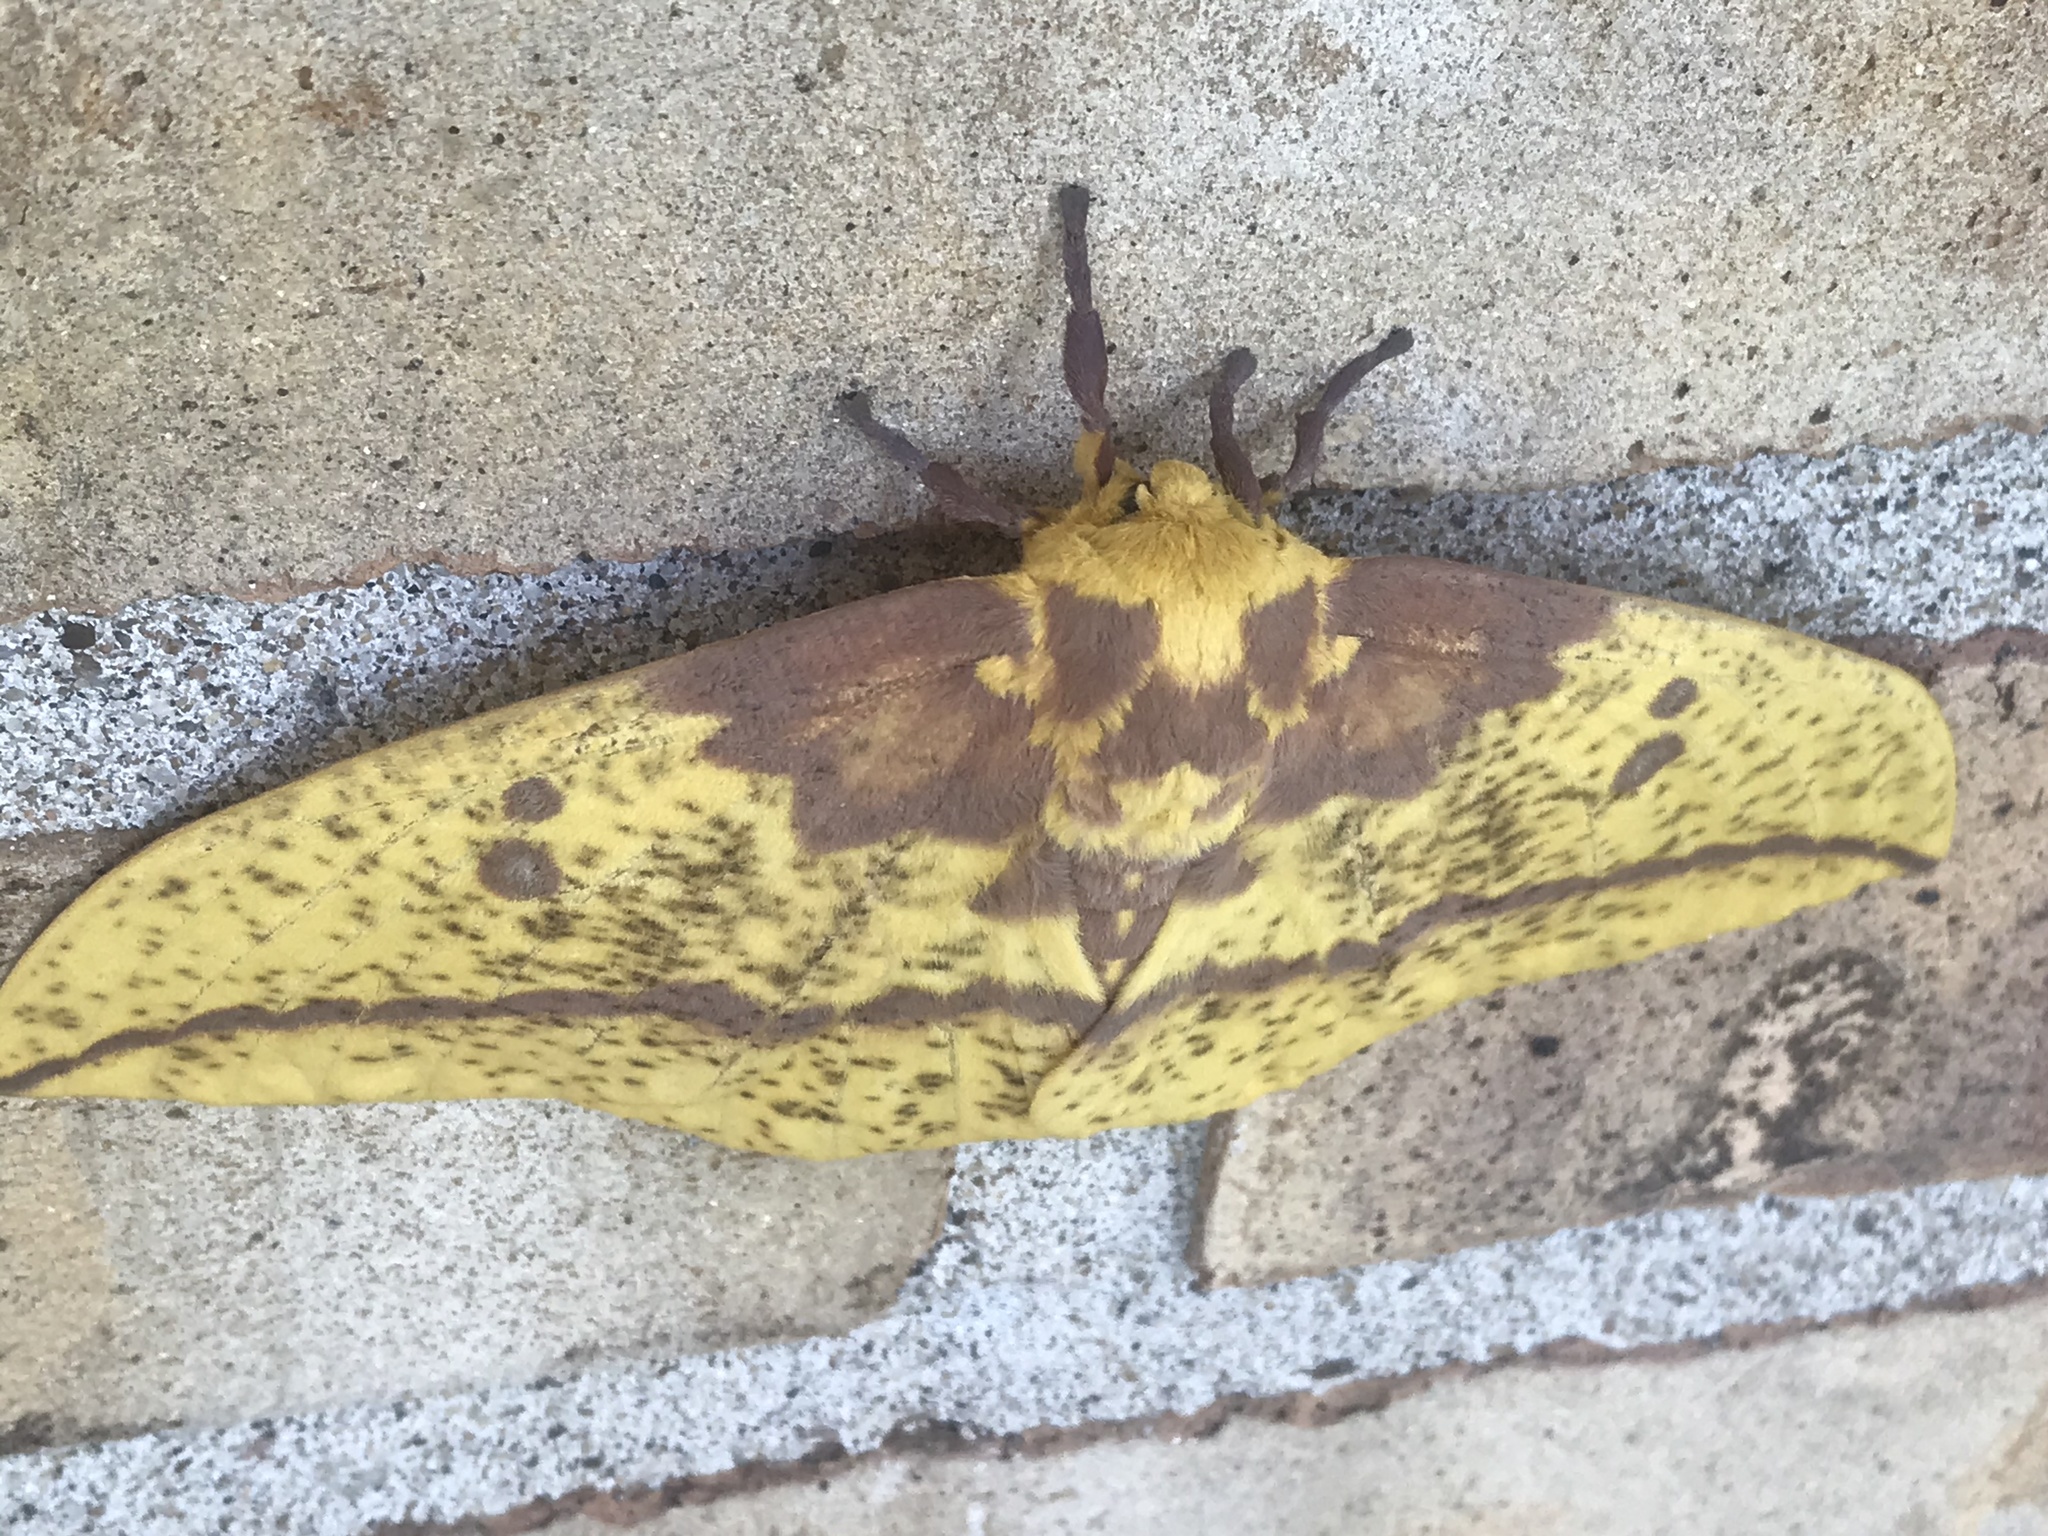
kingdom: Animalia
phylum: Arthropoda
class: Insecta
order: Lepidoptera
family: Saturniidae
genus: Eacles
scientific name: Eacles imperialis
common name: Imperial moth
